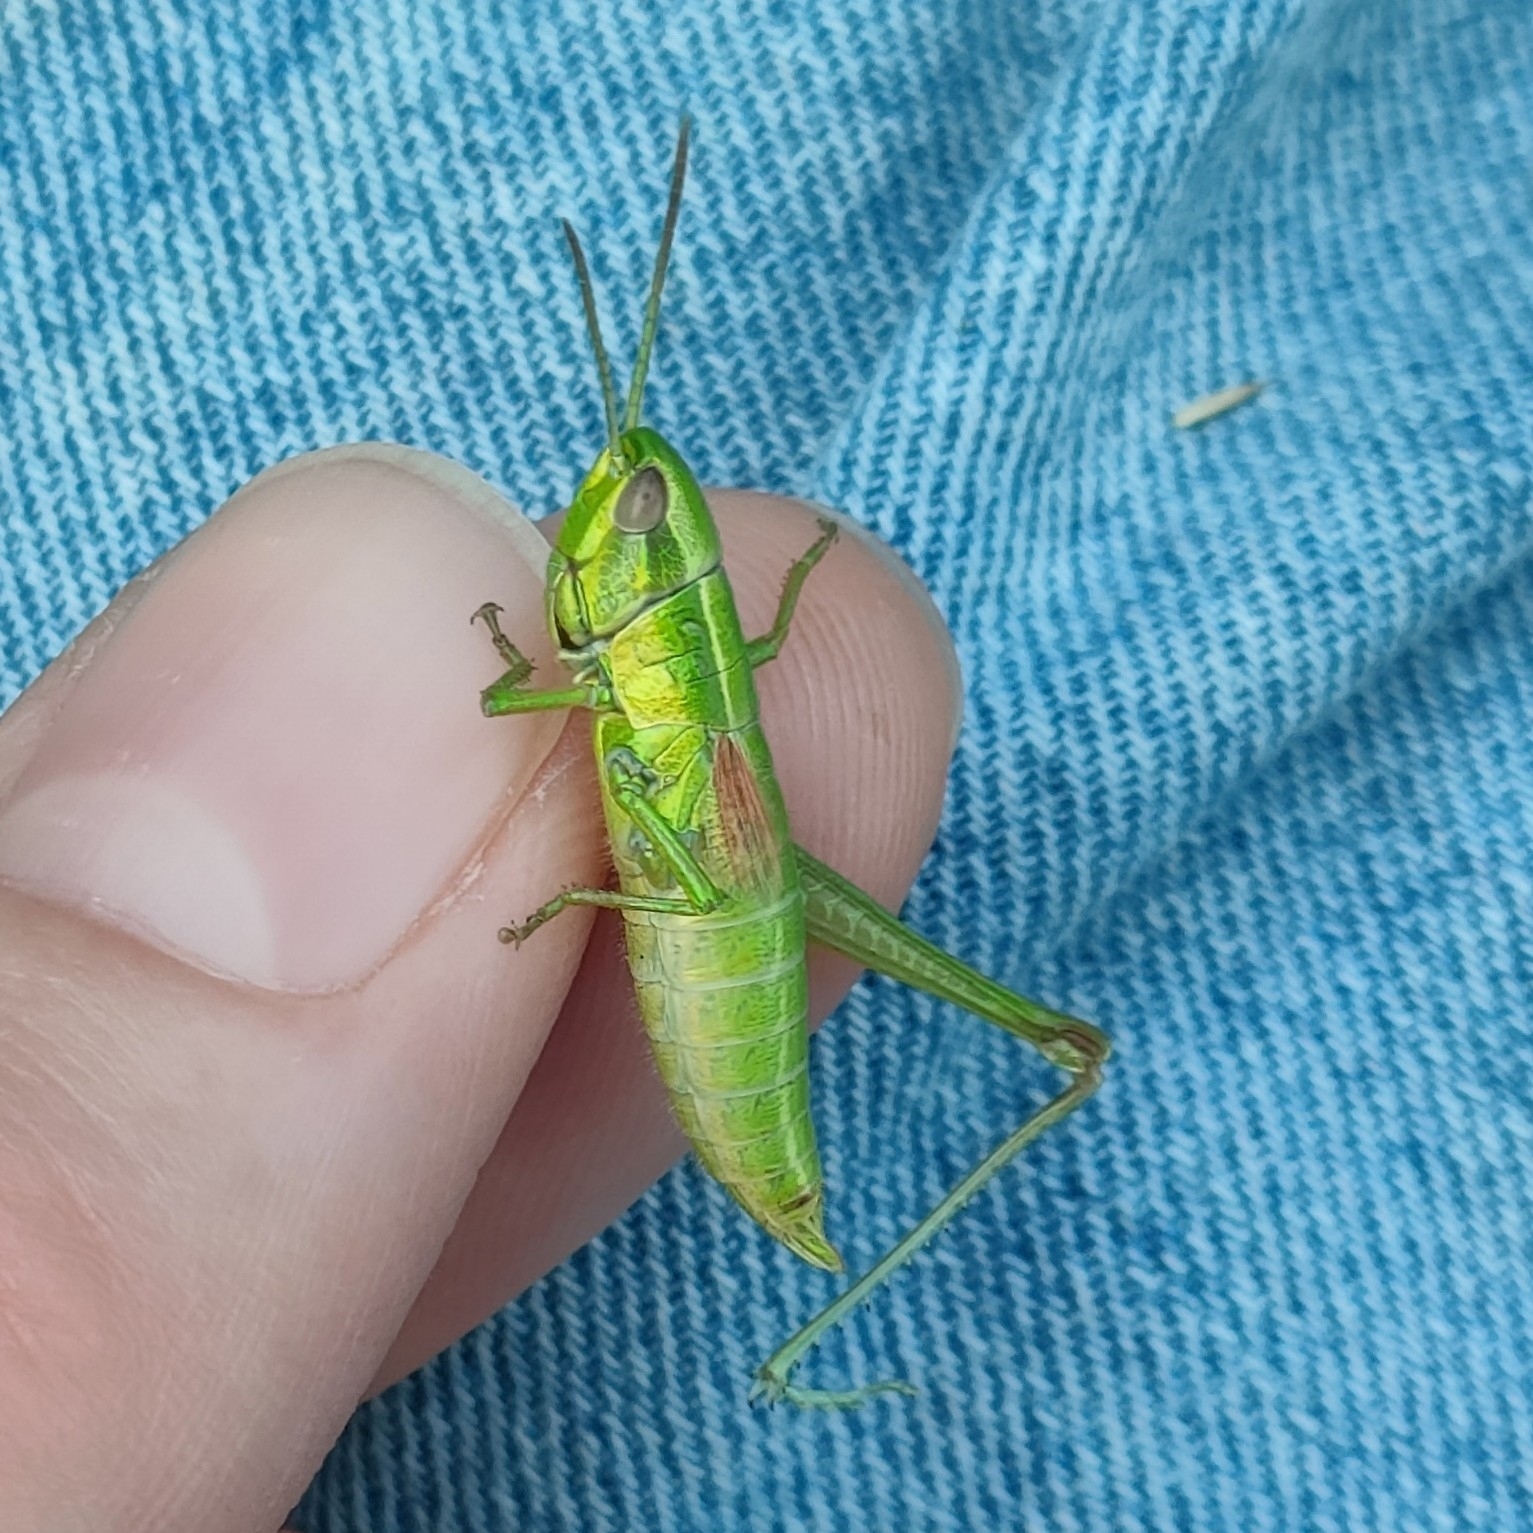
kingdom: Animalia
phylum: Arthropoda
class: Insecta
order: Orthoptera
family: Acrididae
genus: Euthystira
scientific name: Euthystira brachyptera
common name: Small gold grasshopper
